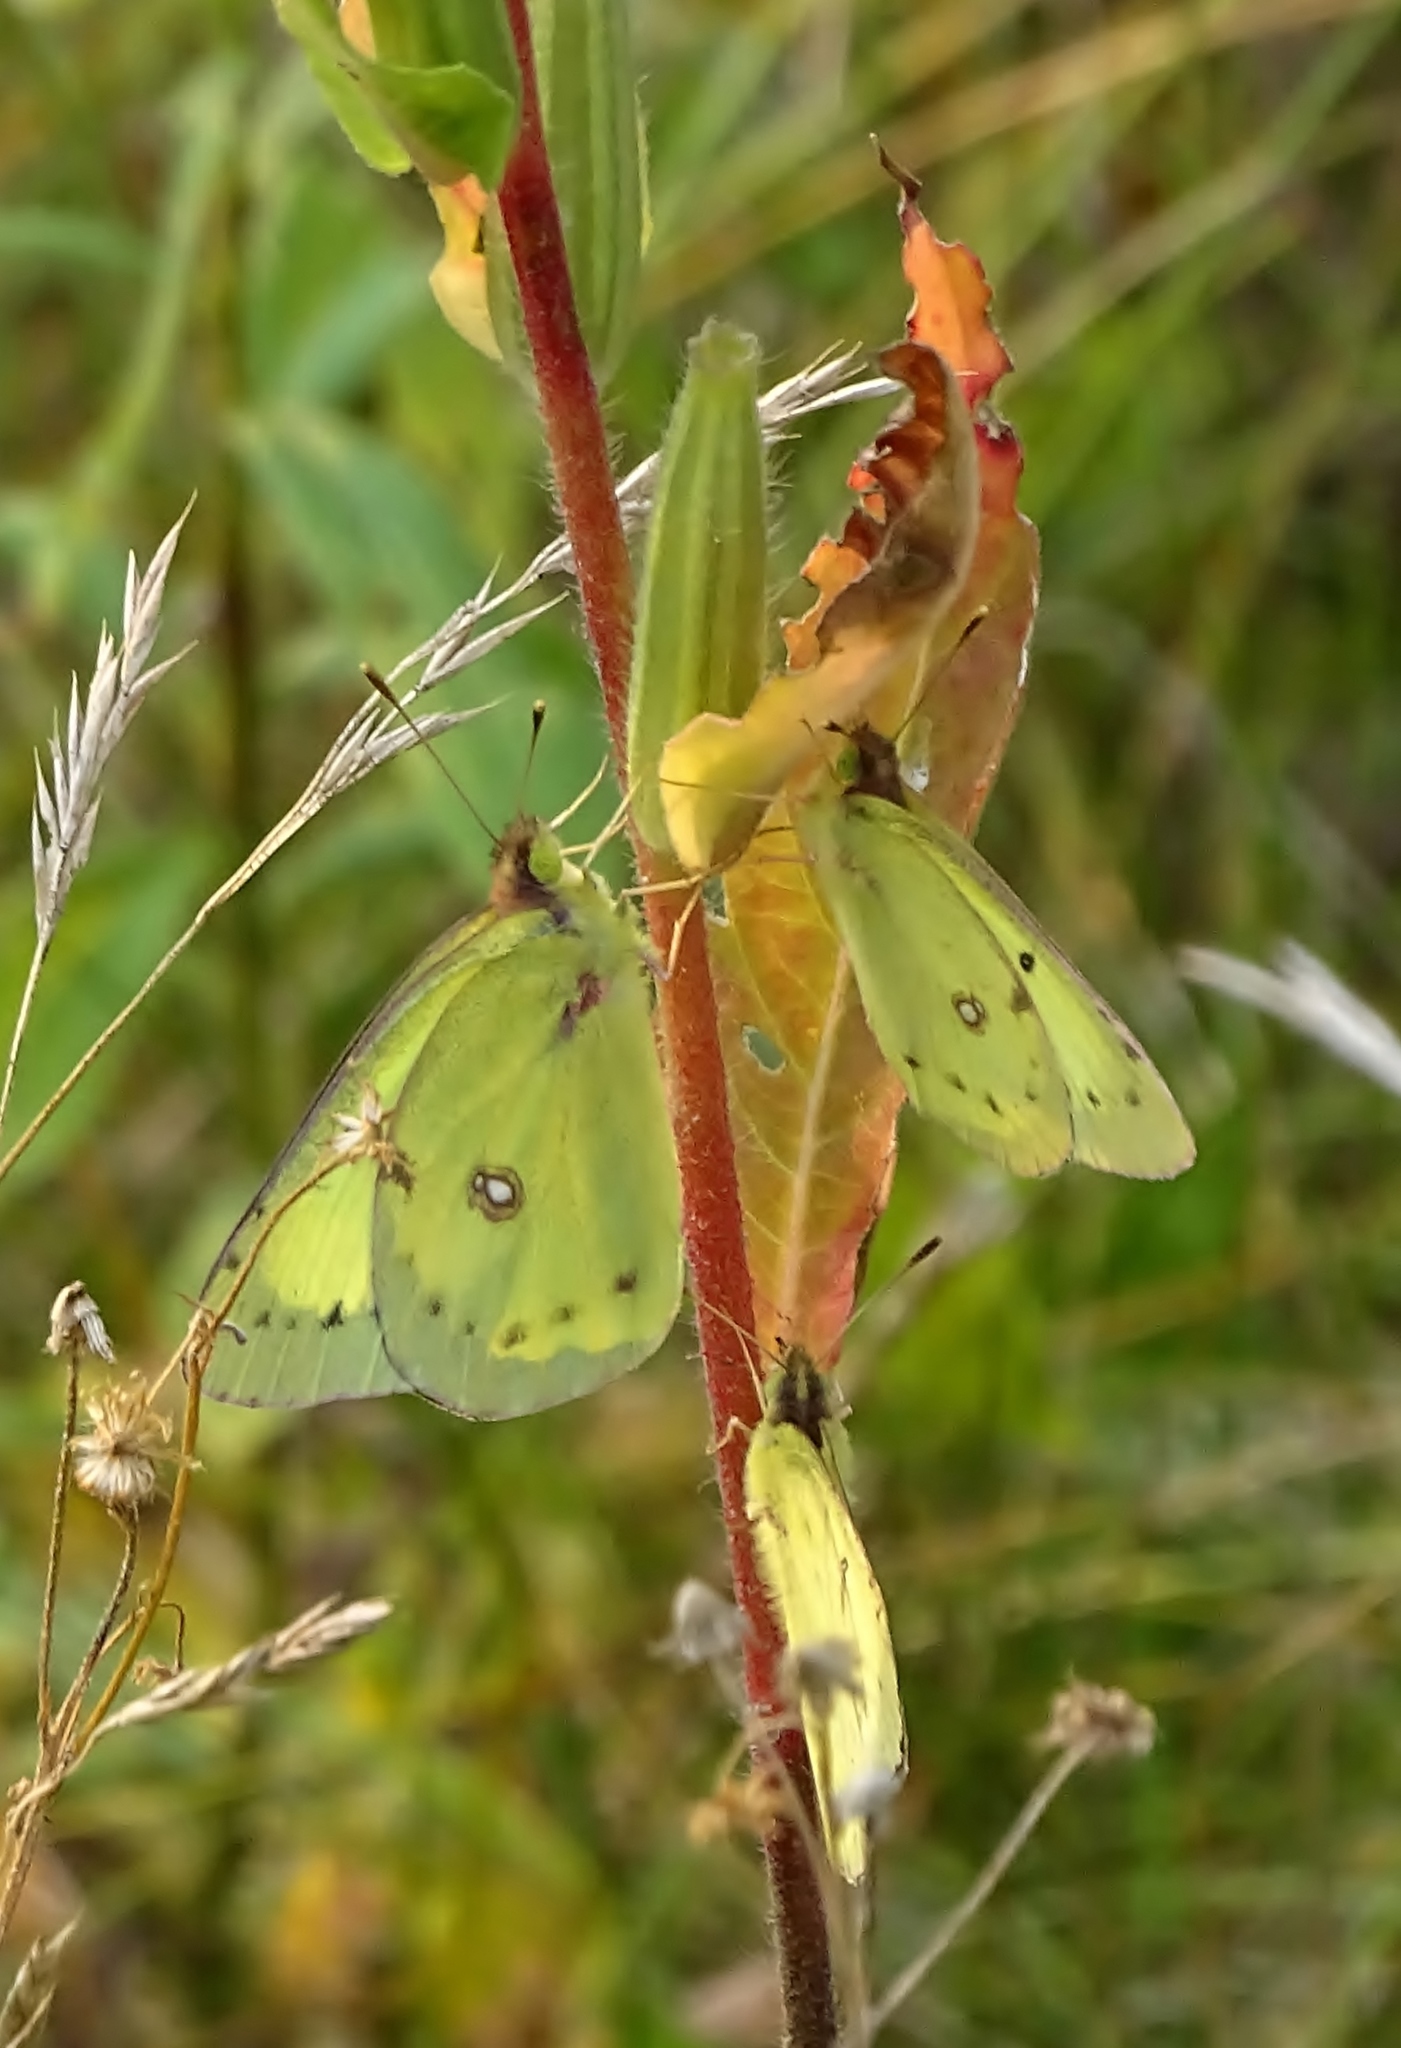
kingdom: Animalia
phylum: Arthropoda
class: Insecta
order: Lepidoptera
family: Pieridae
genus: Colias
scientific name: Colias philodice
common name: Clouded sulphur
